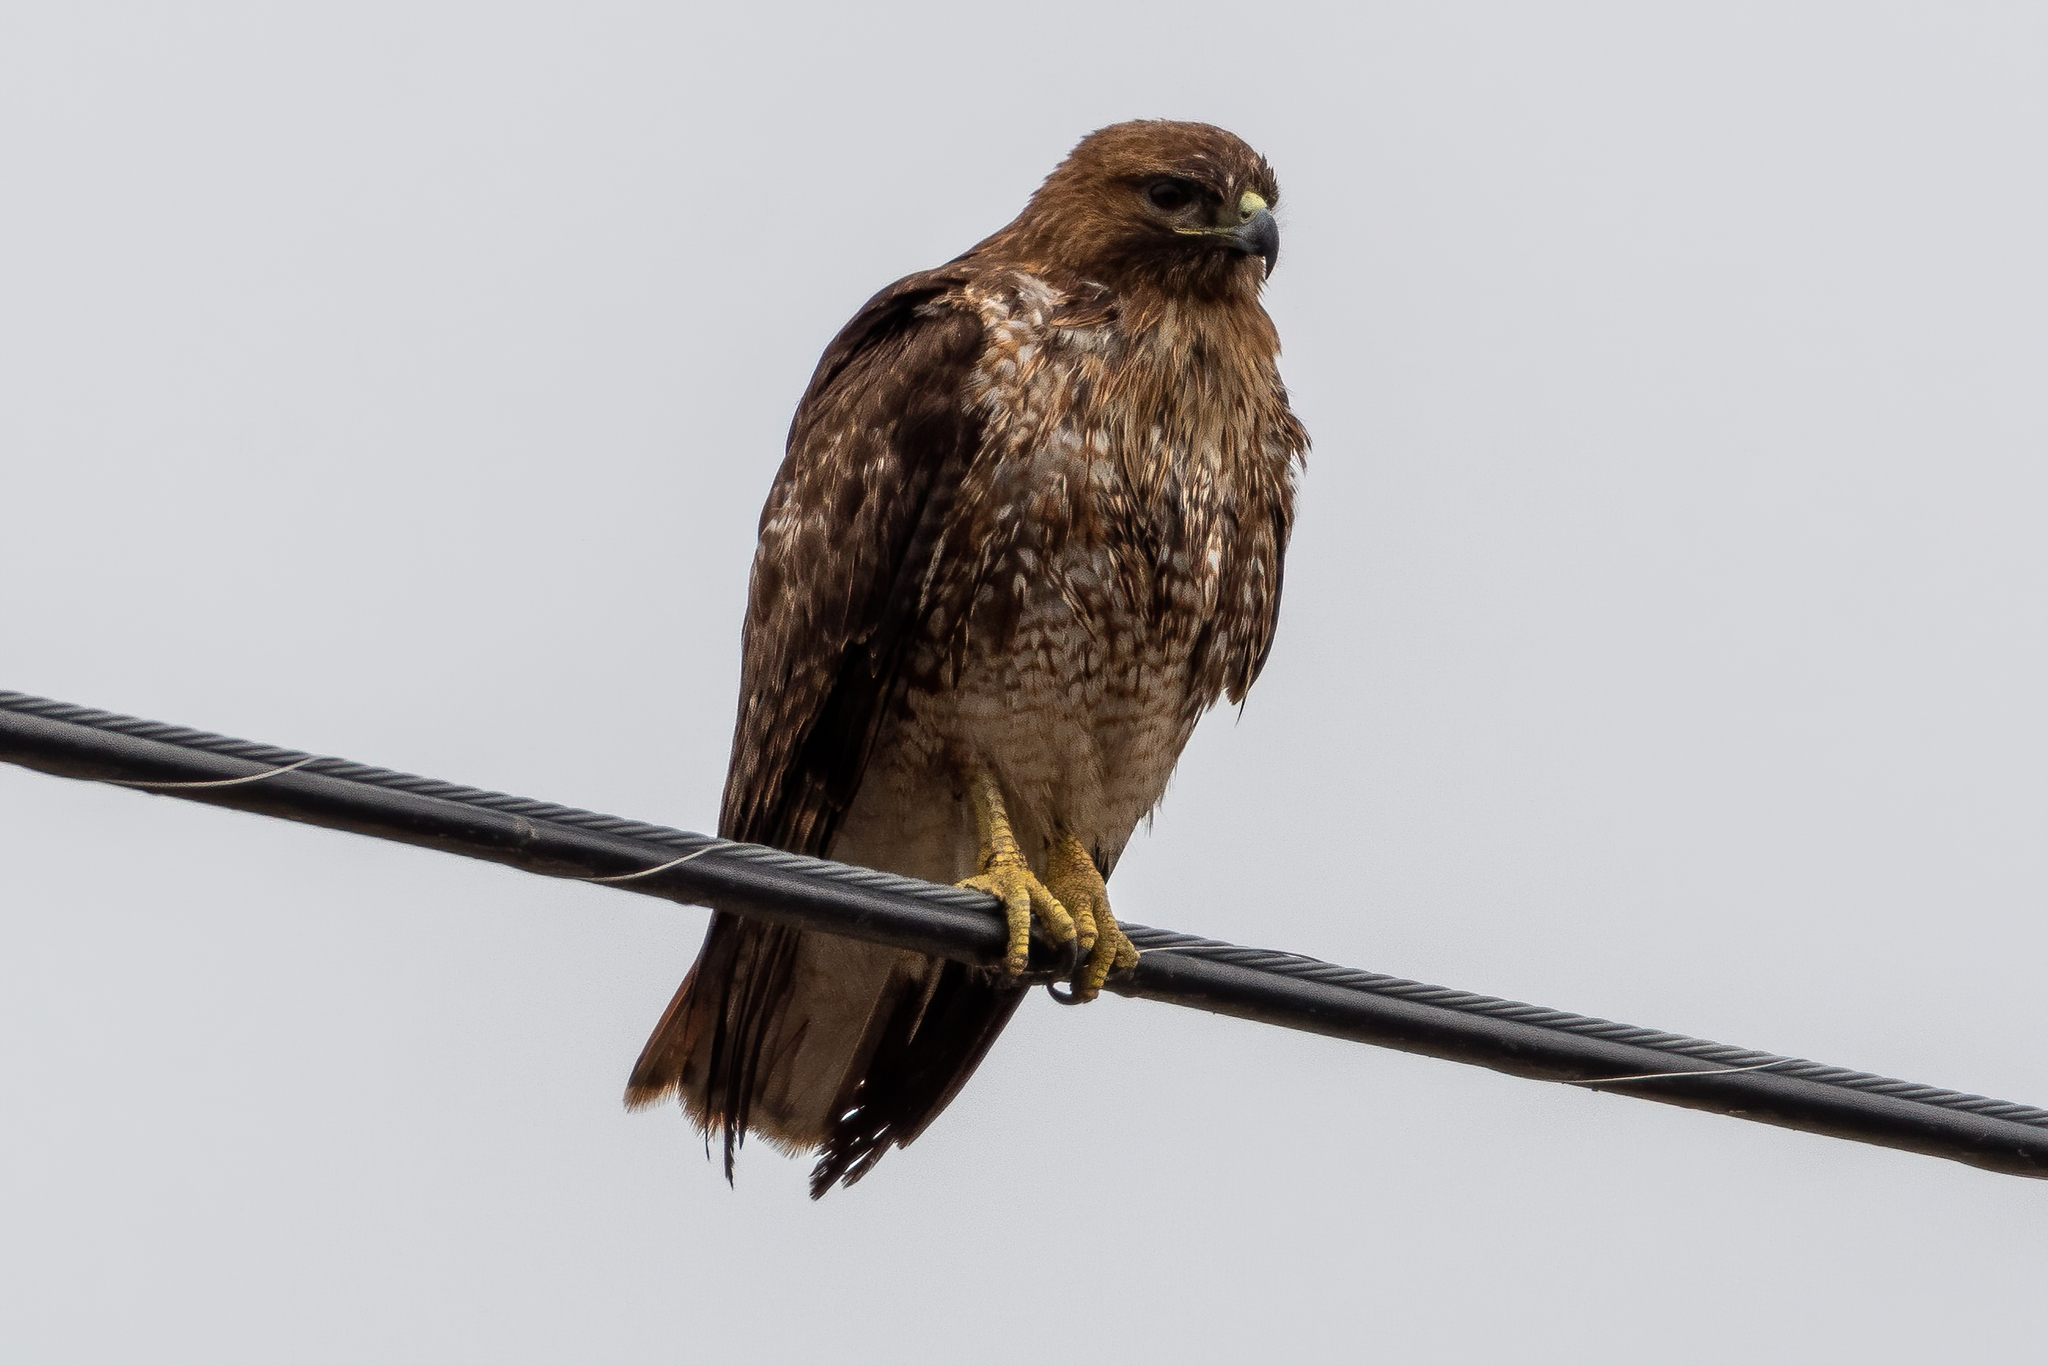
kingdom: Animalia
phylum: Chordata
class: Aves
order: Accipitriformes
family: Accipitridae
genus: Buteo
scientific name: Buteo jamaicensis
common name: Red-tailed hawk
